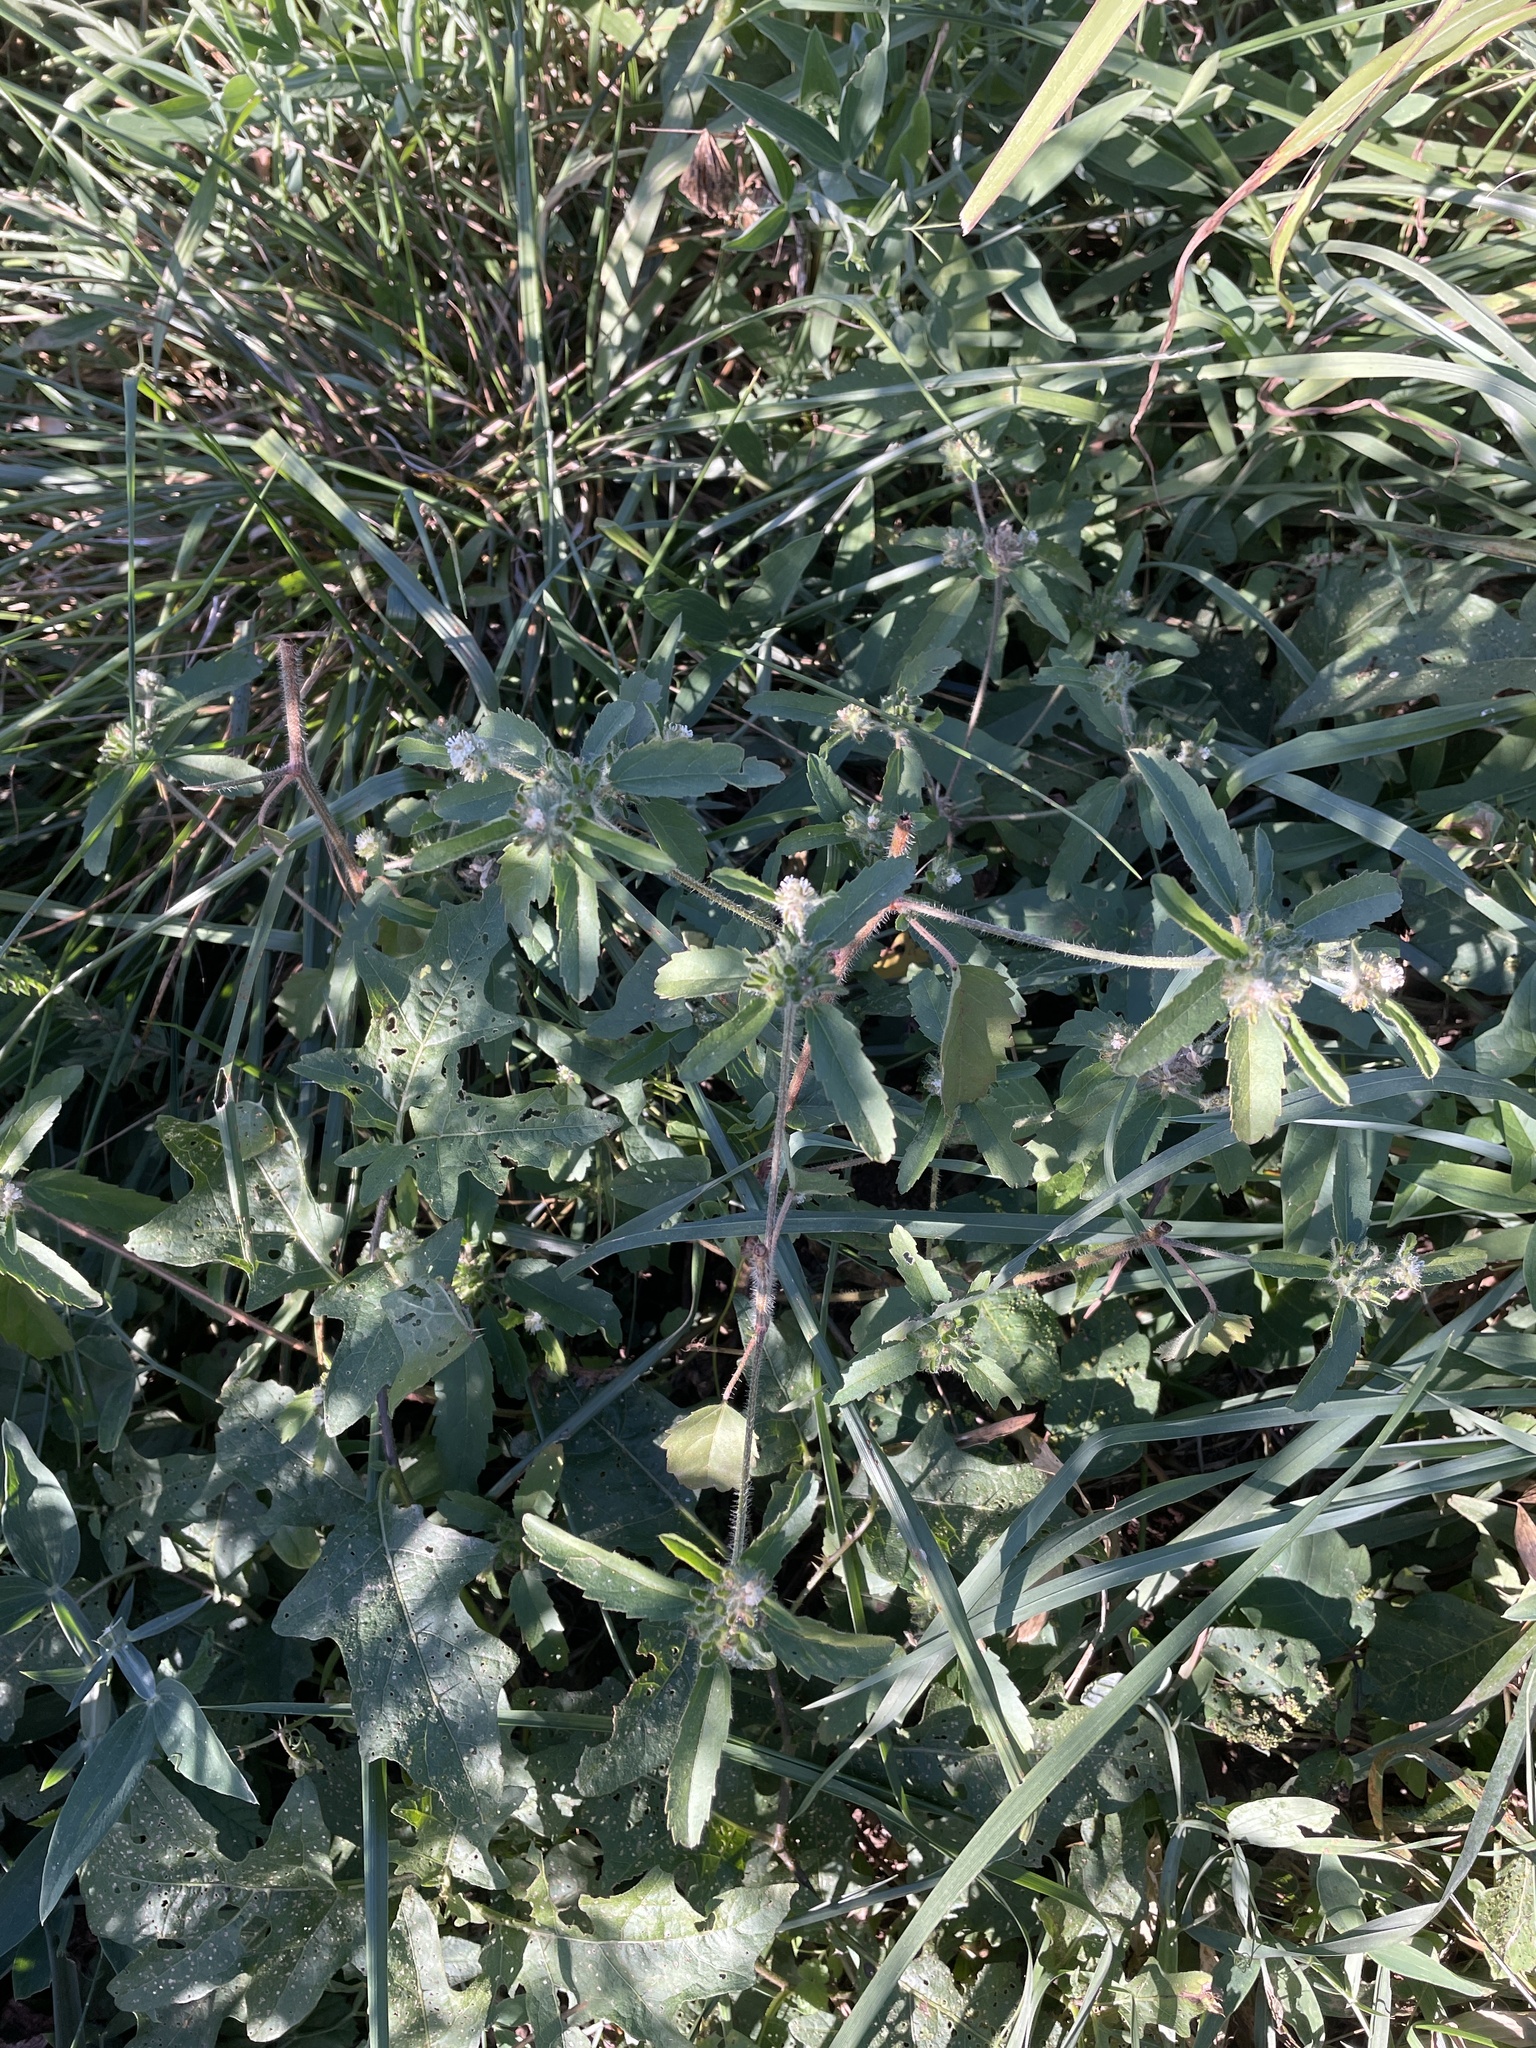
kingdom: Plantae
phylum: Tracheophyta
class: Magnoliopsida
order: Malpighiales
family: Euphorbiaceae
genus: Croton
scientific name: Croton glandulosus
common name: Tropic croton
